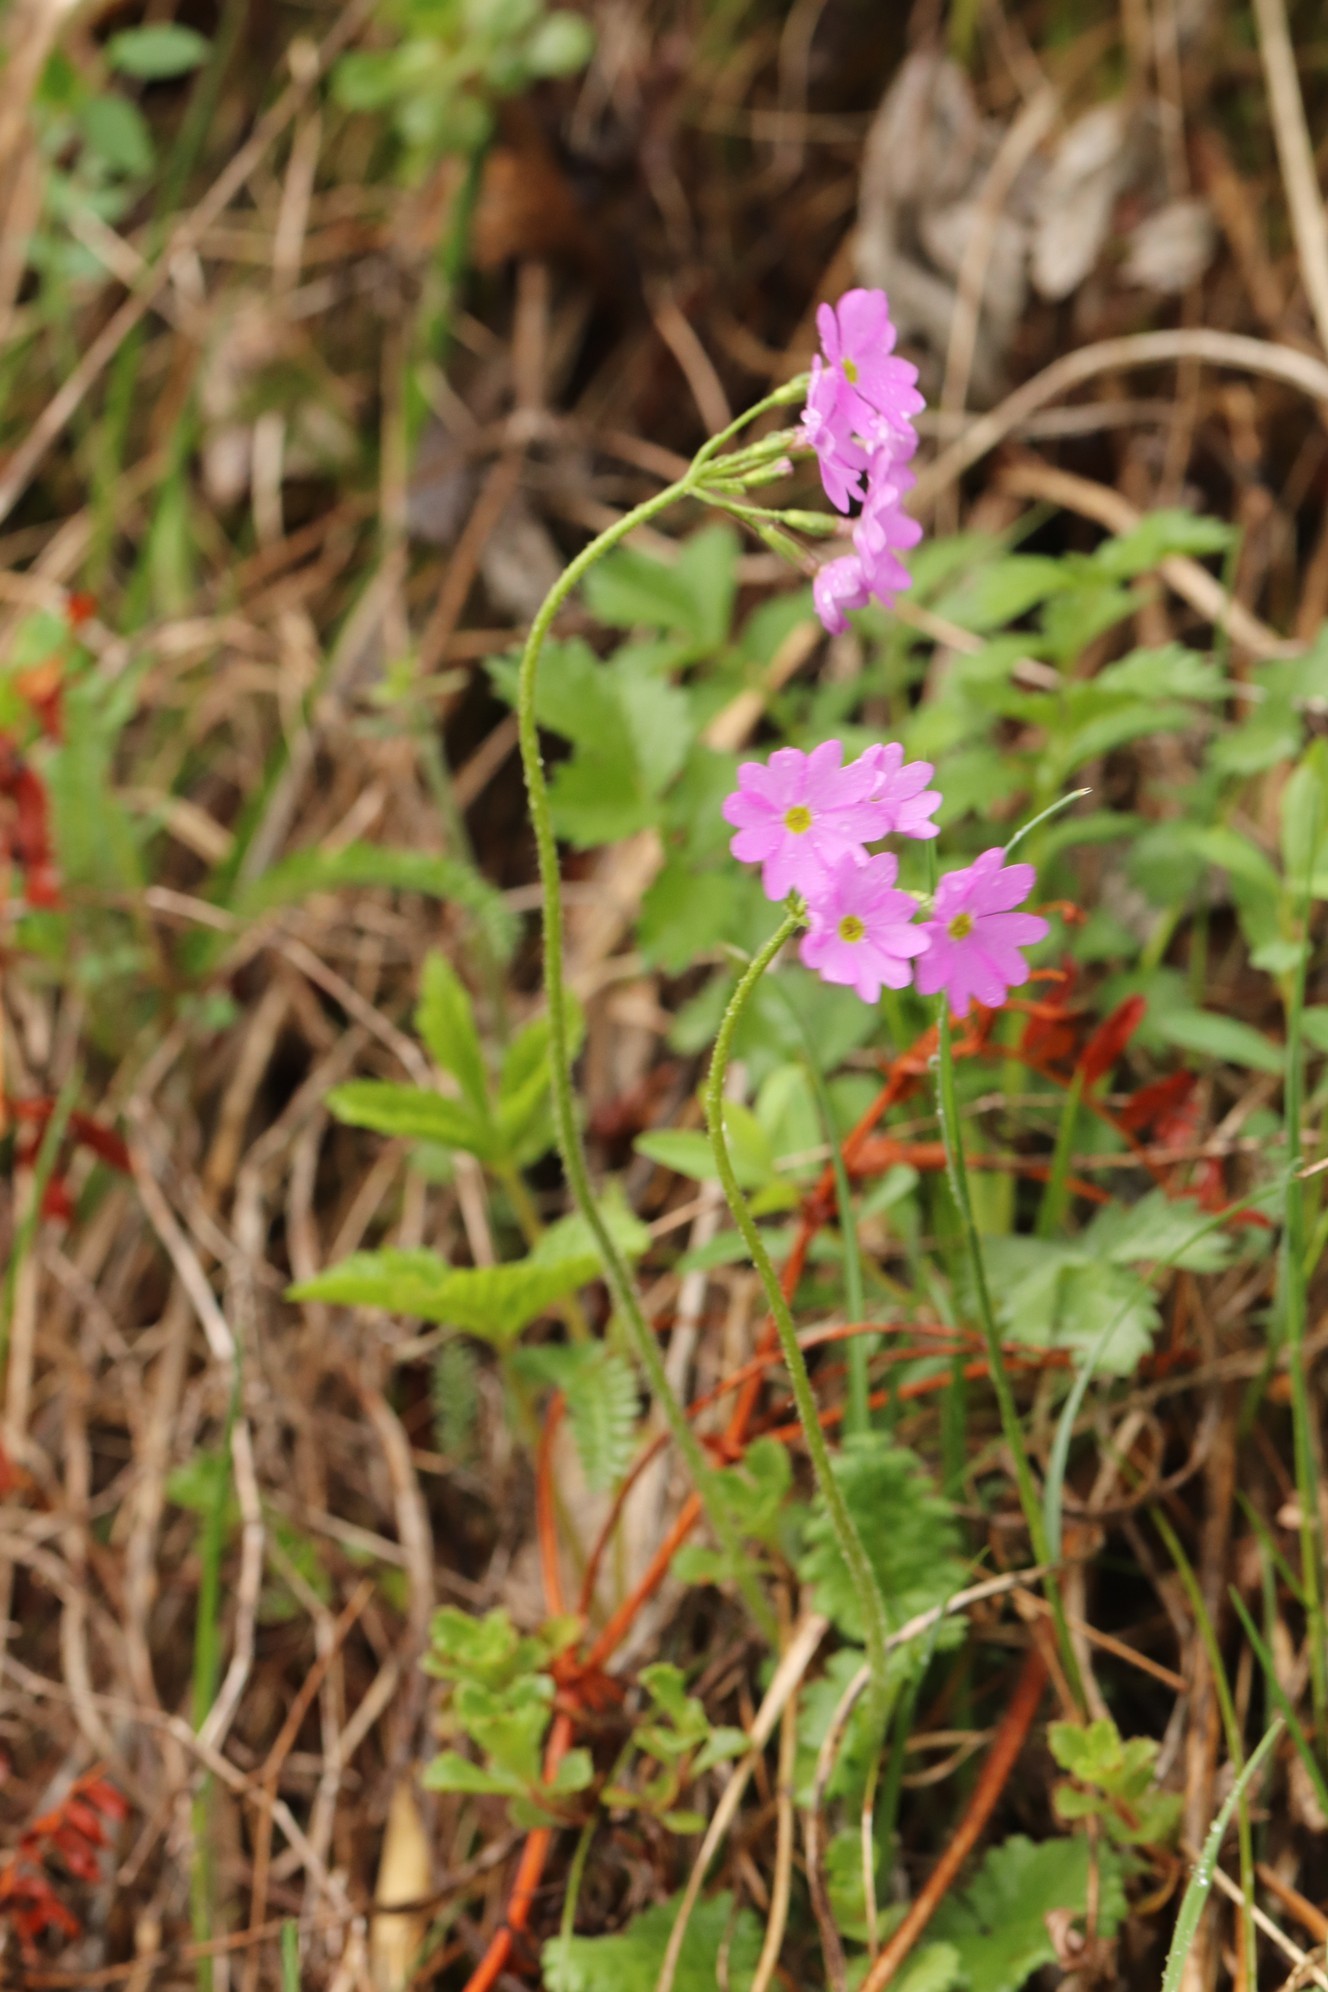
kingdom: Plantae
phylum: Tracheophyta
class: Magnoliopsida
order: Ericales
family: Primulaceae
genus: Primula
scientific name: Primula cortusoides
